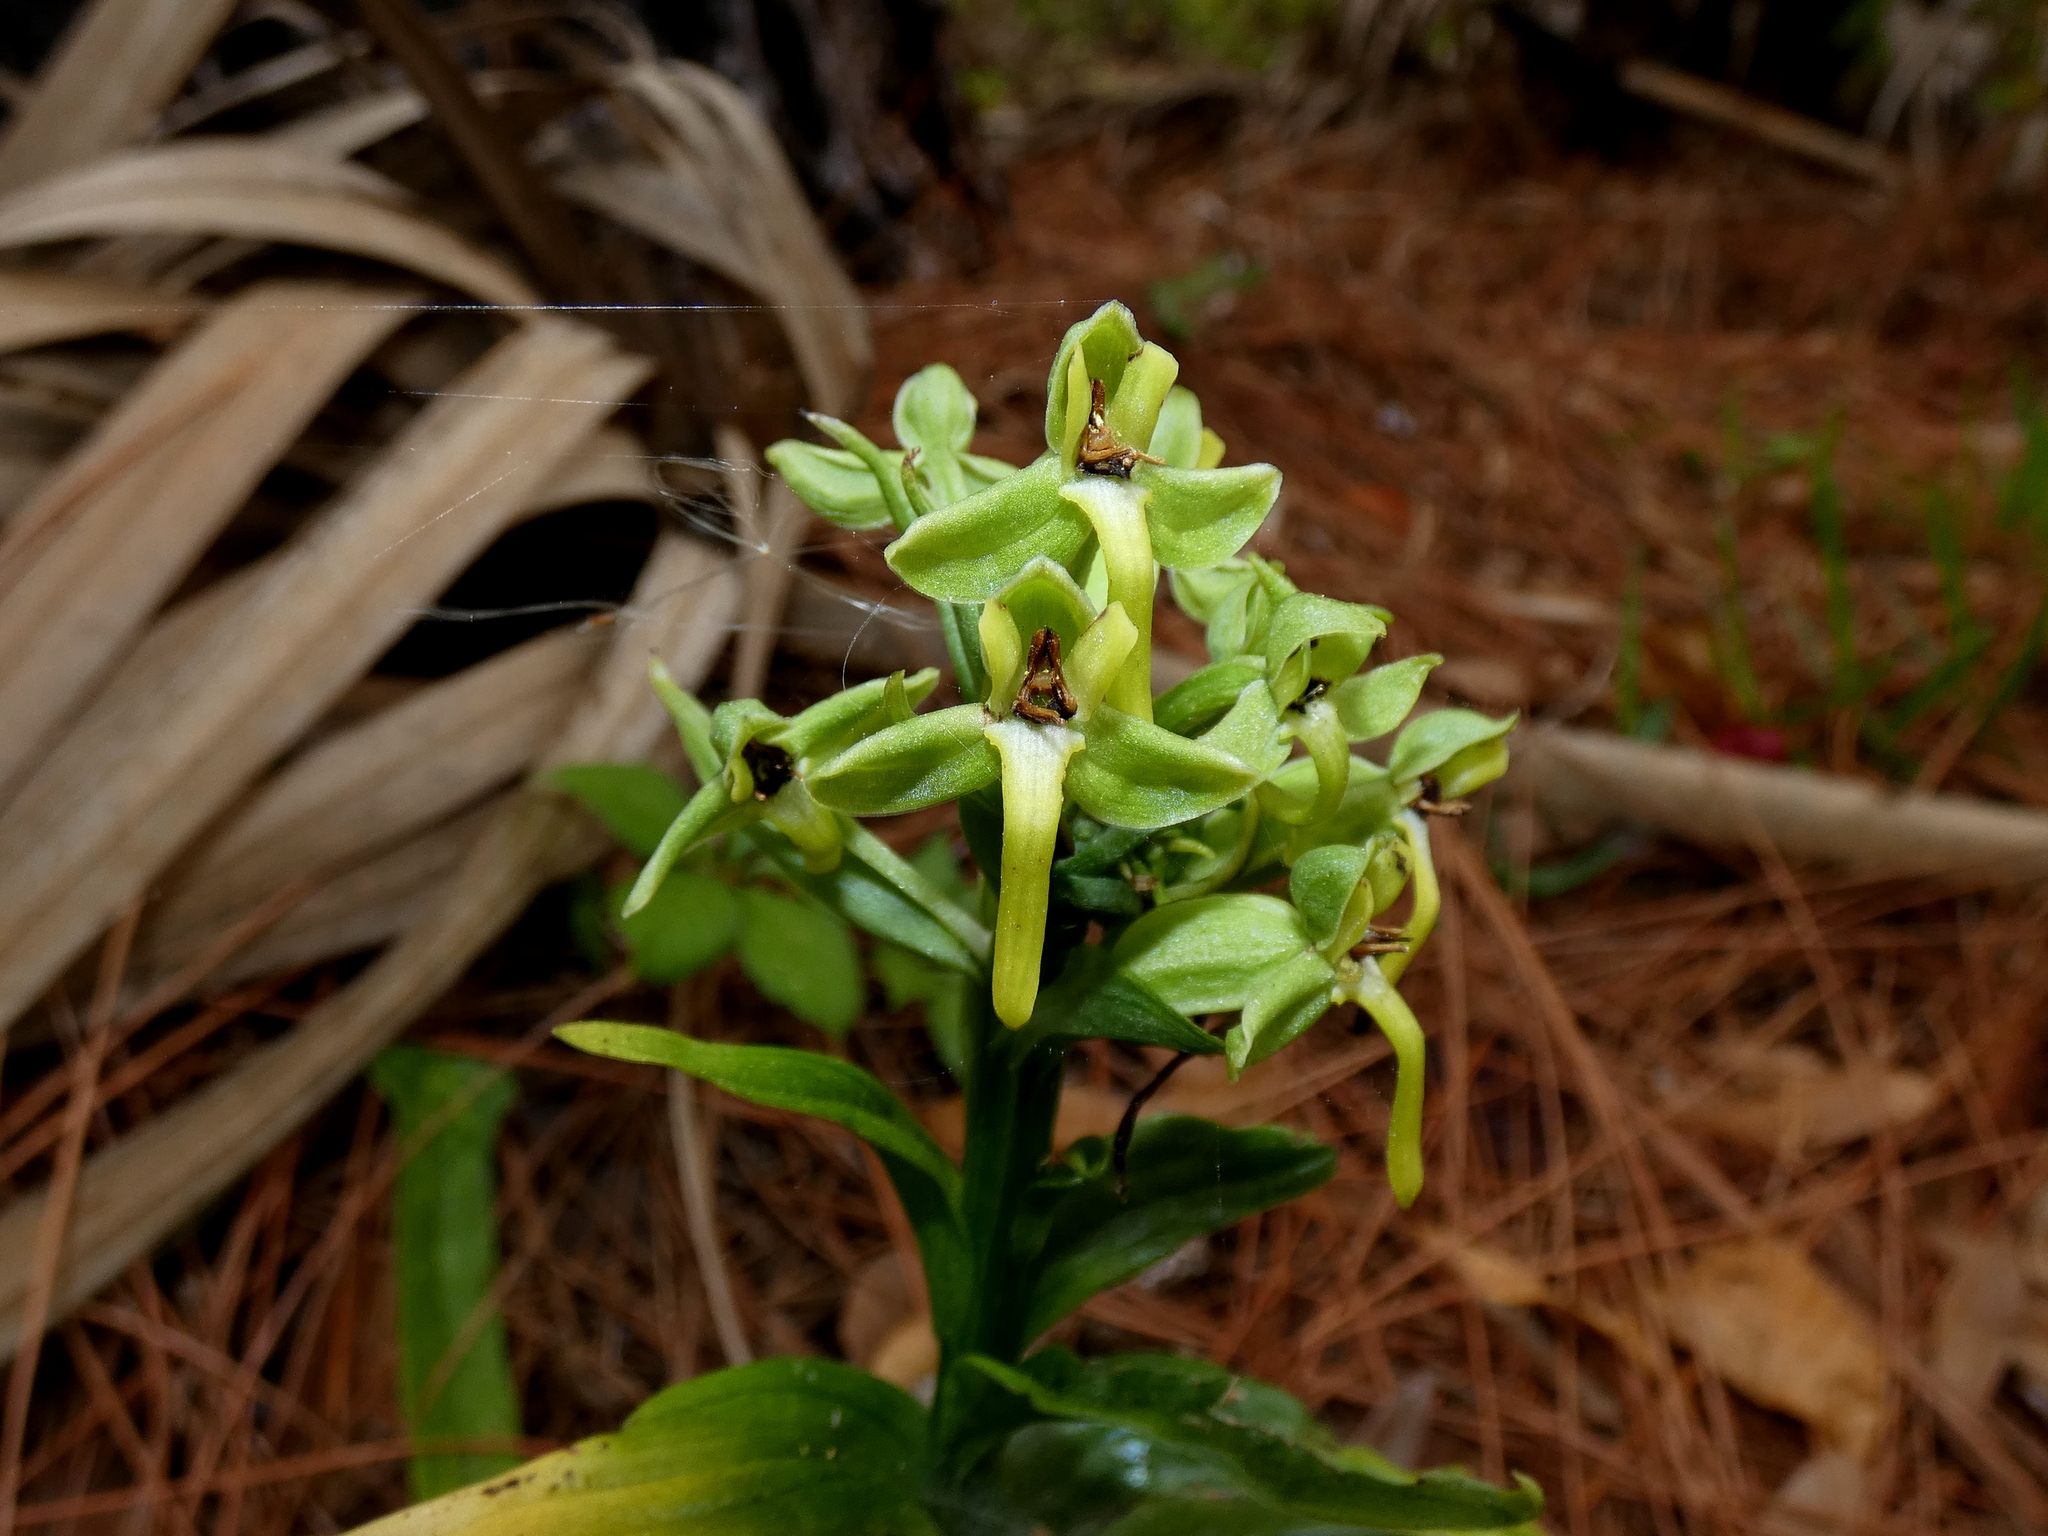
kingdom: Plantae
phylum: Tracheophyta
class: Liliopsida
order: Asparagales
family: Orchidaceae
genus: Habenaria
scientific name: Habenaria floribunda
